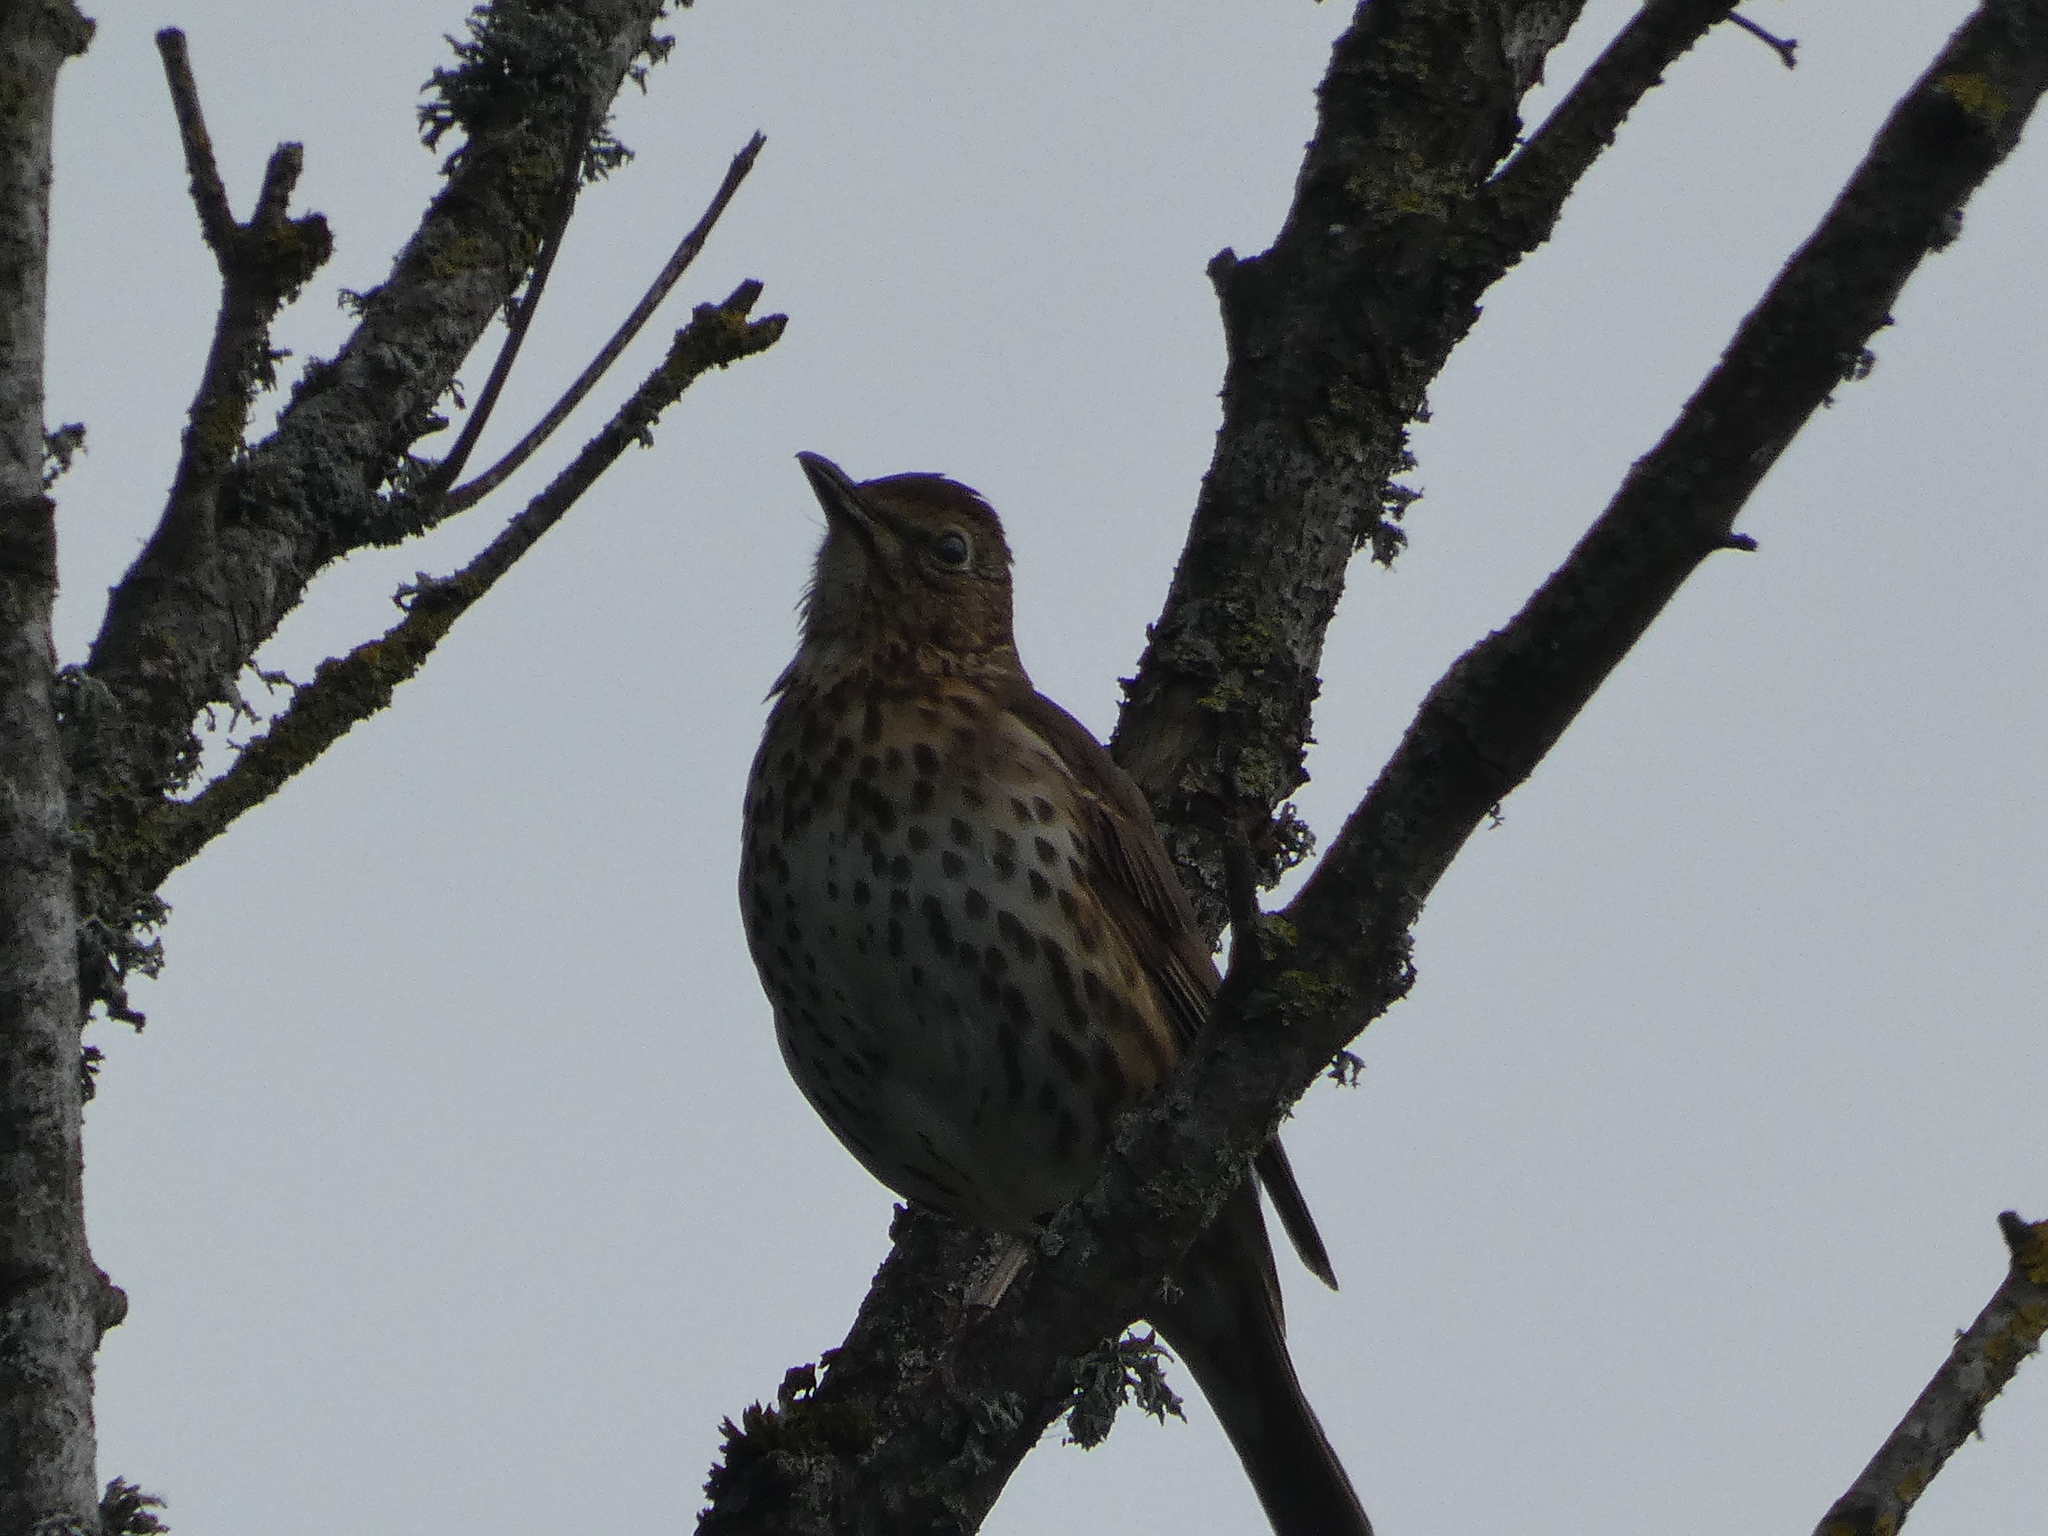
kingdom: Animalia
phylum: Chordata
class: Aves
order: Passeriformes
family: Turdidae
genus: Turdus
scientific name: Turdus philomelos
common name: Song thrush
